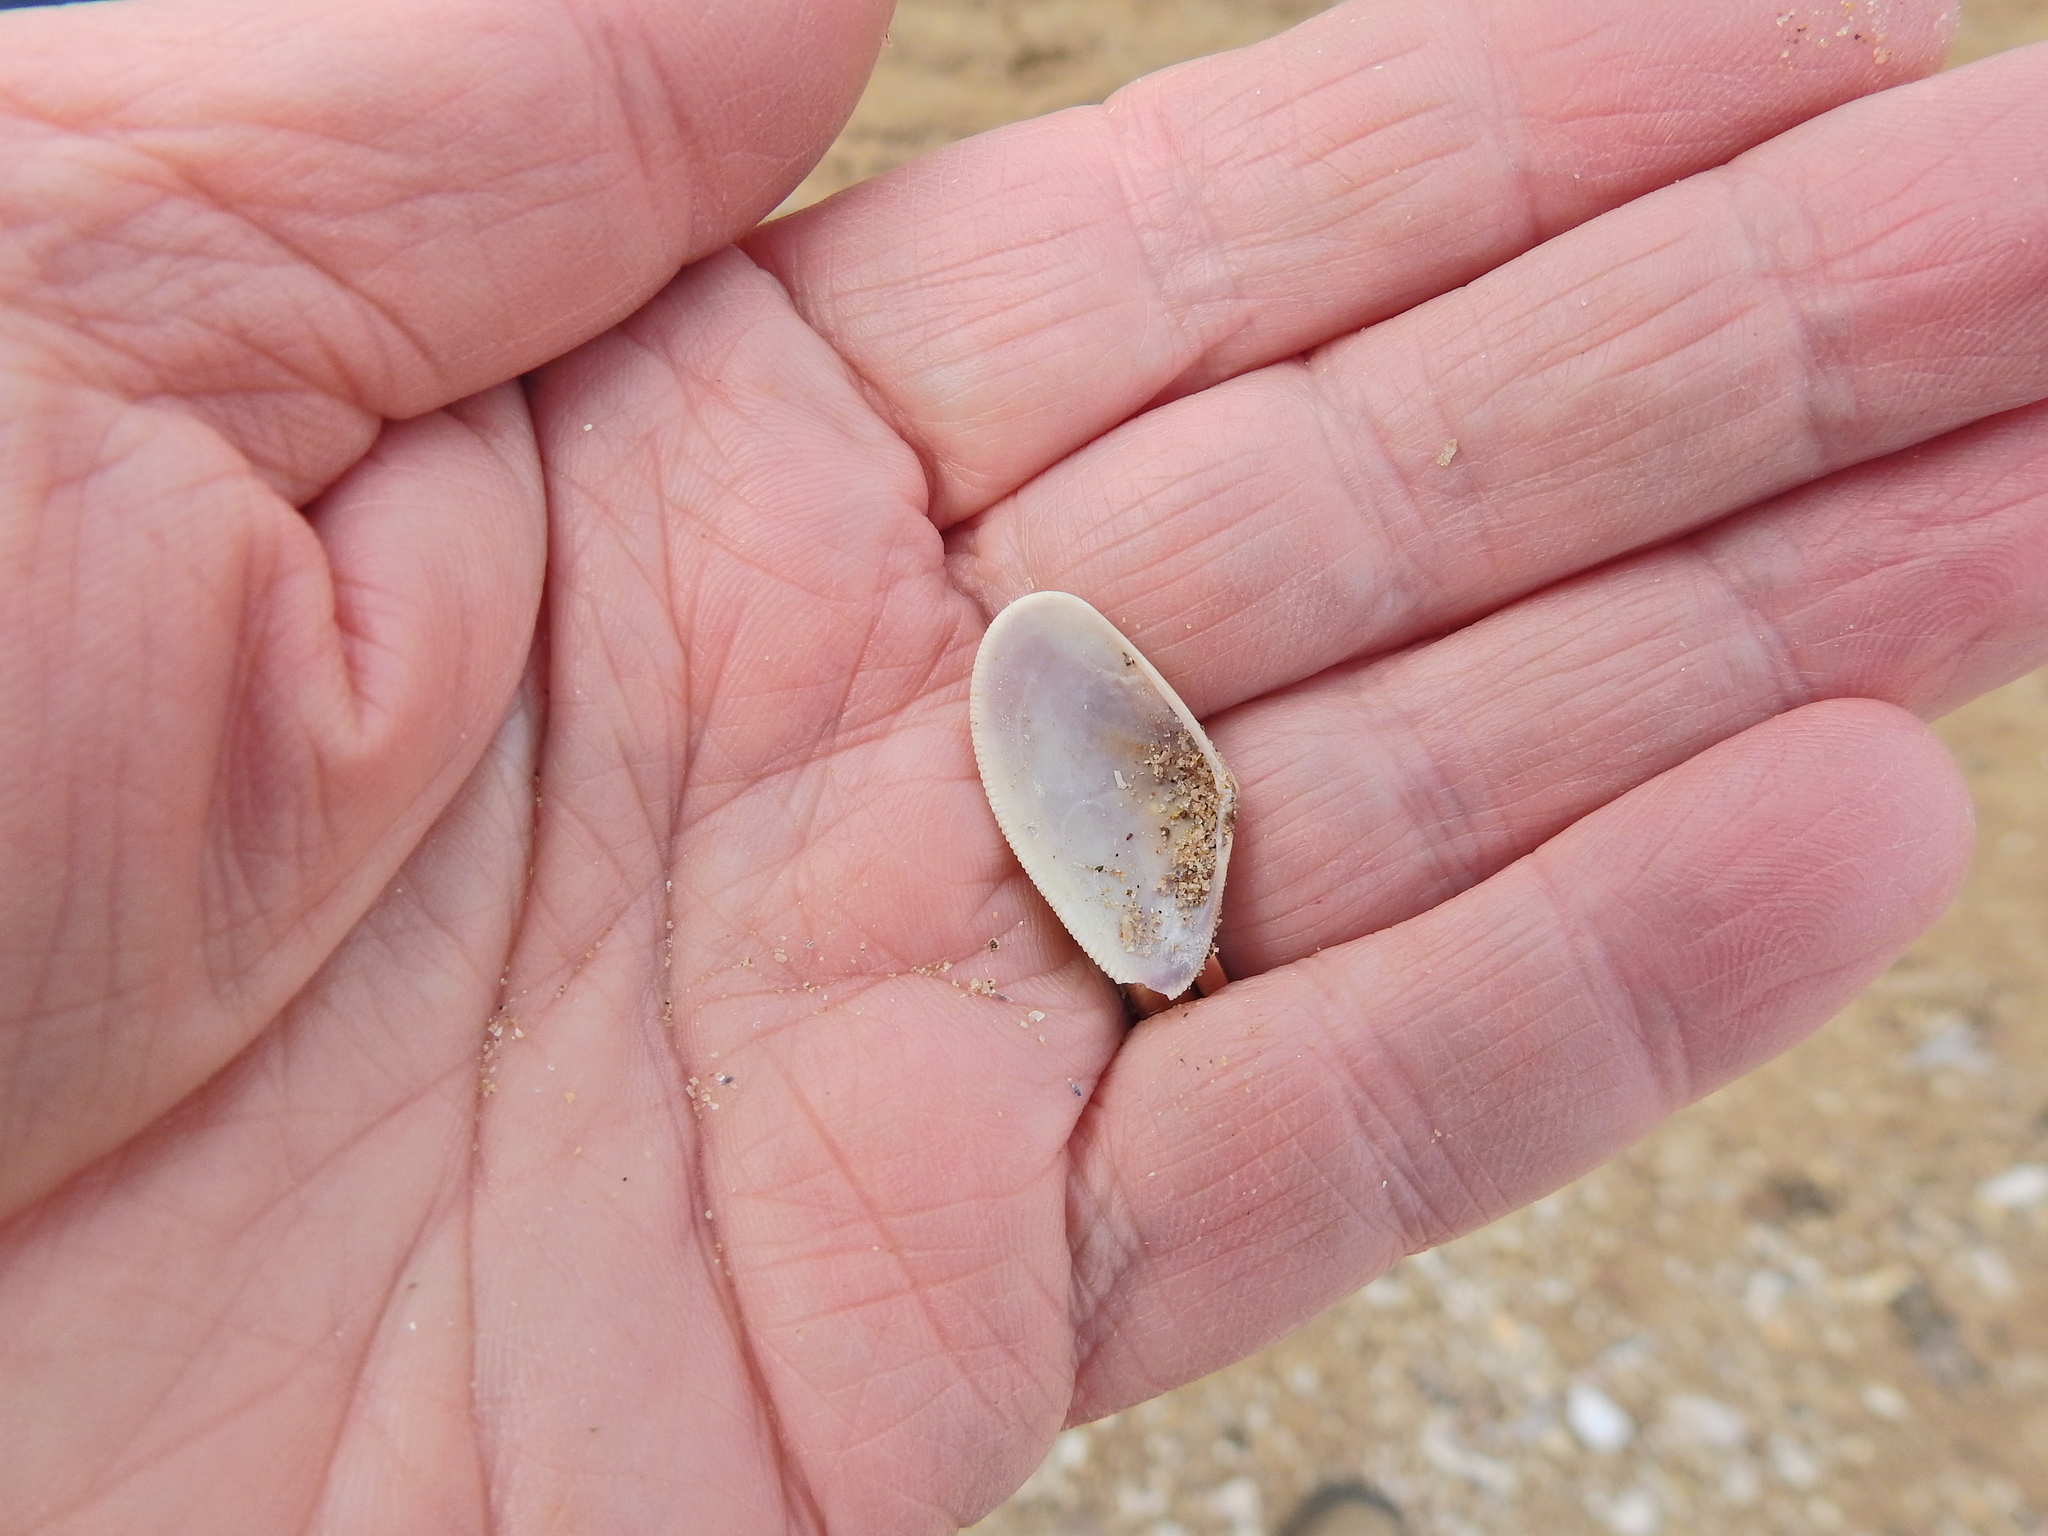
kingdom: Animalia
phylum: Mollusca
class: Bivalvia
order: Cardiida
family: Donacidae
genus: Donax
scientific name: Donax vittatus
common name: Banded wedge-shell
